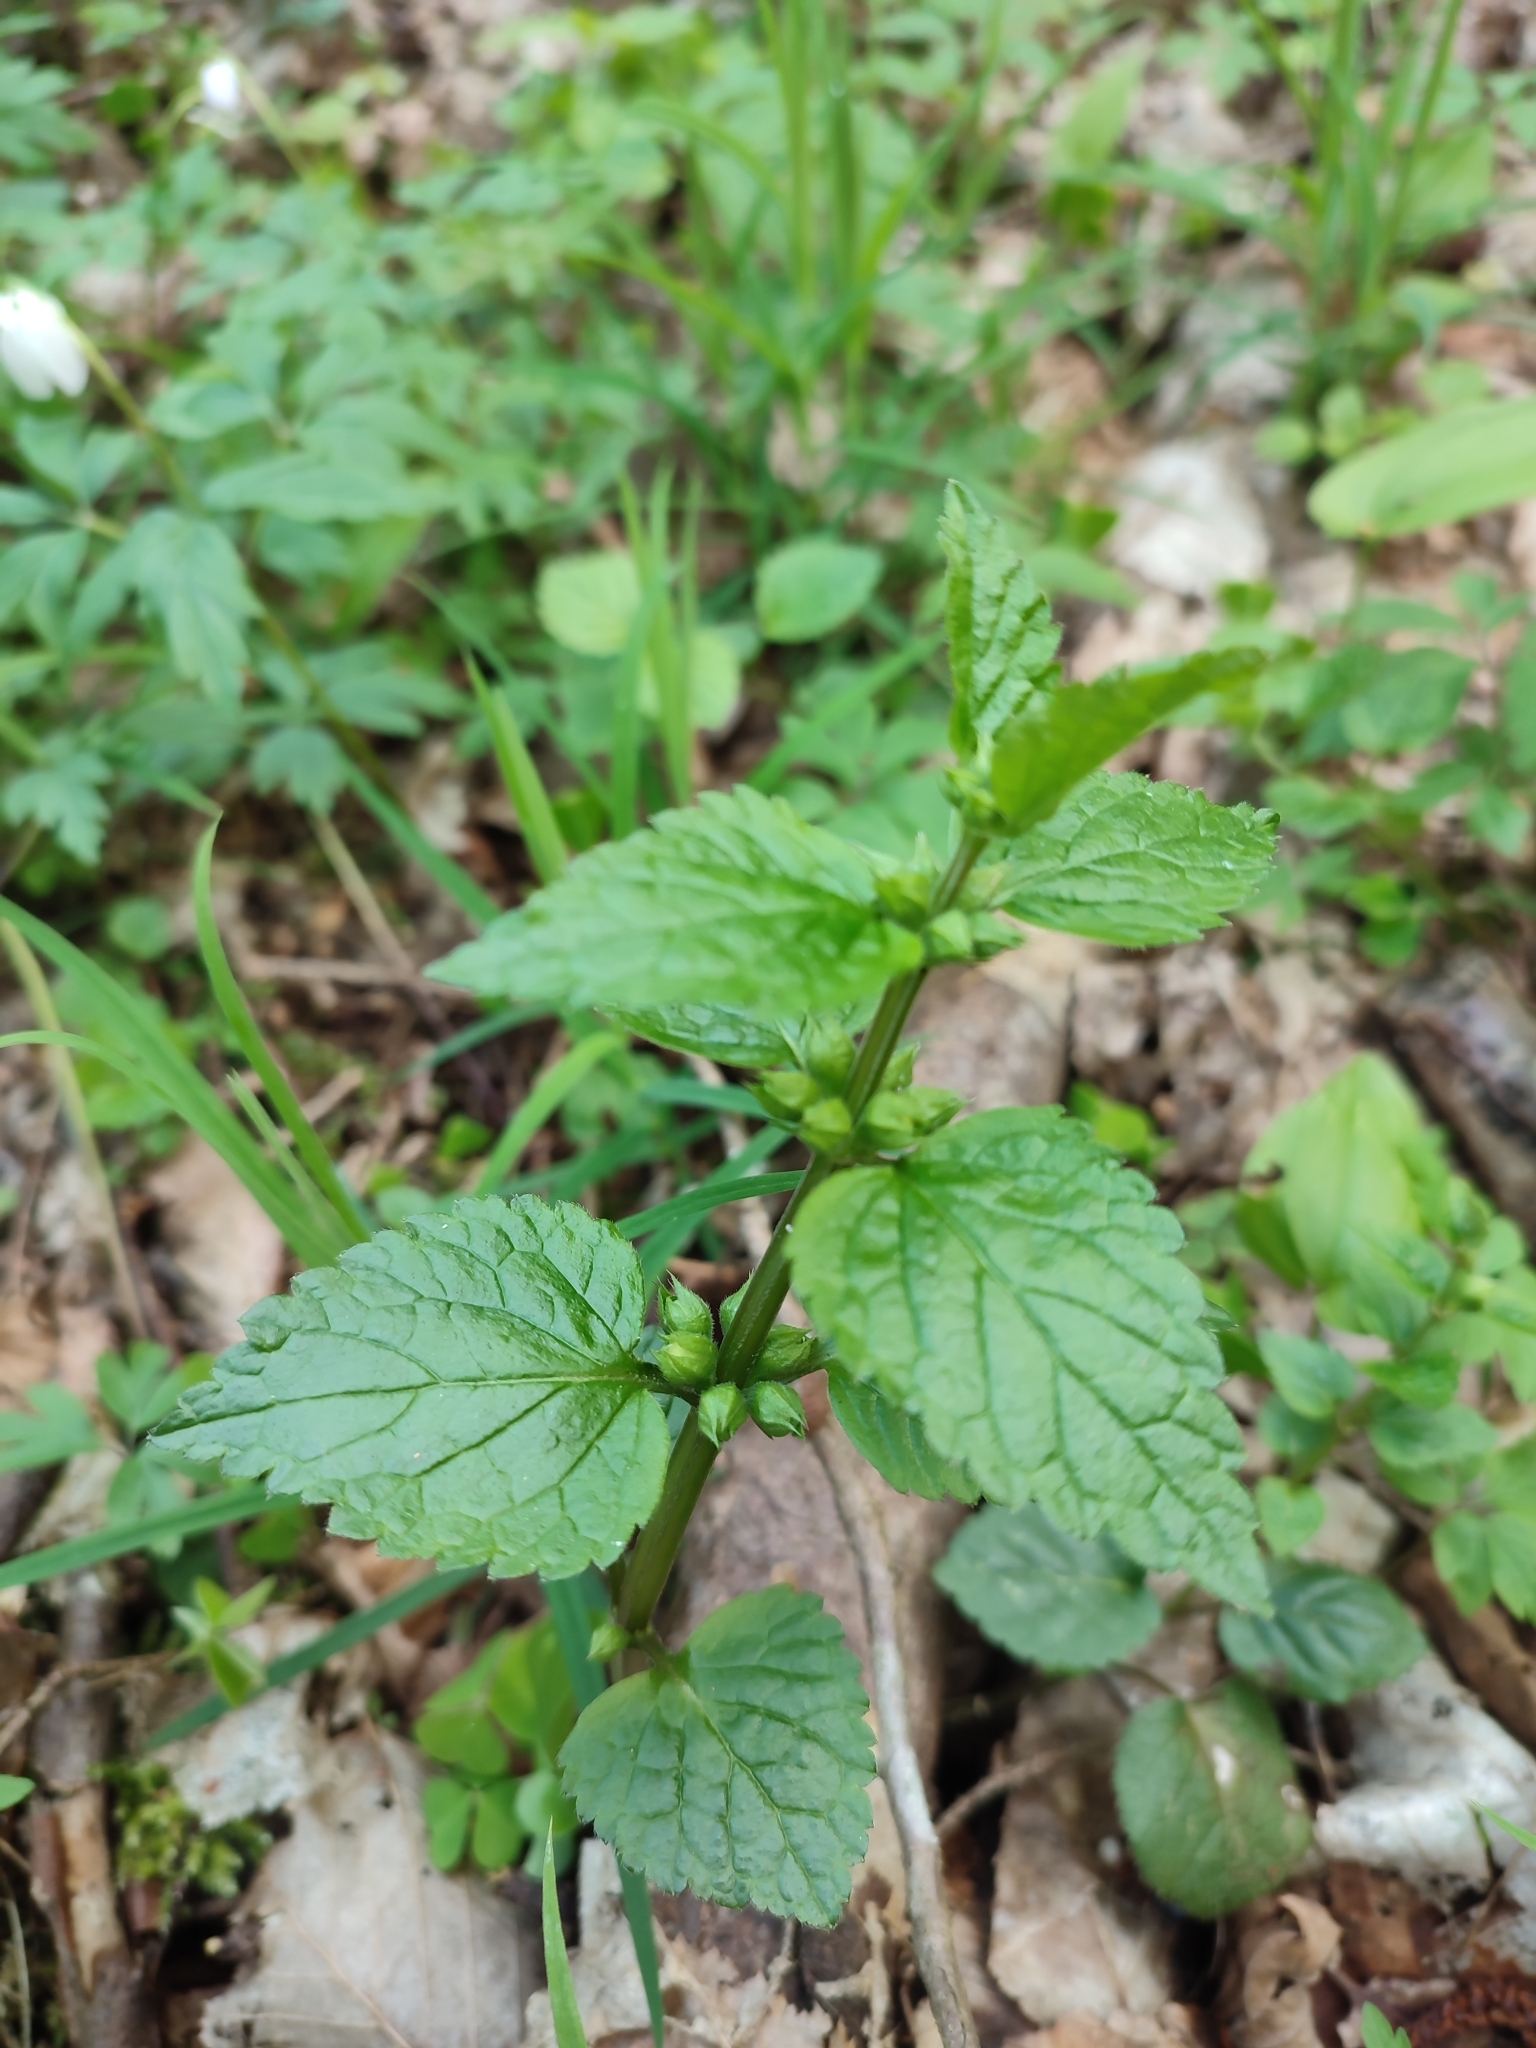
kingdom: Plantae
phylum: Tracheophyta
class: Magnoliopsida
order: Lamiales
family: Lamiaceae
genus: Lamium
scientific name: Lamium galeobdolon
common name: Yellow archangel
